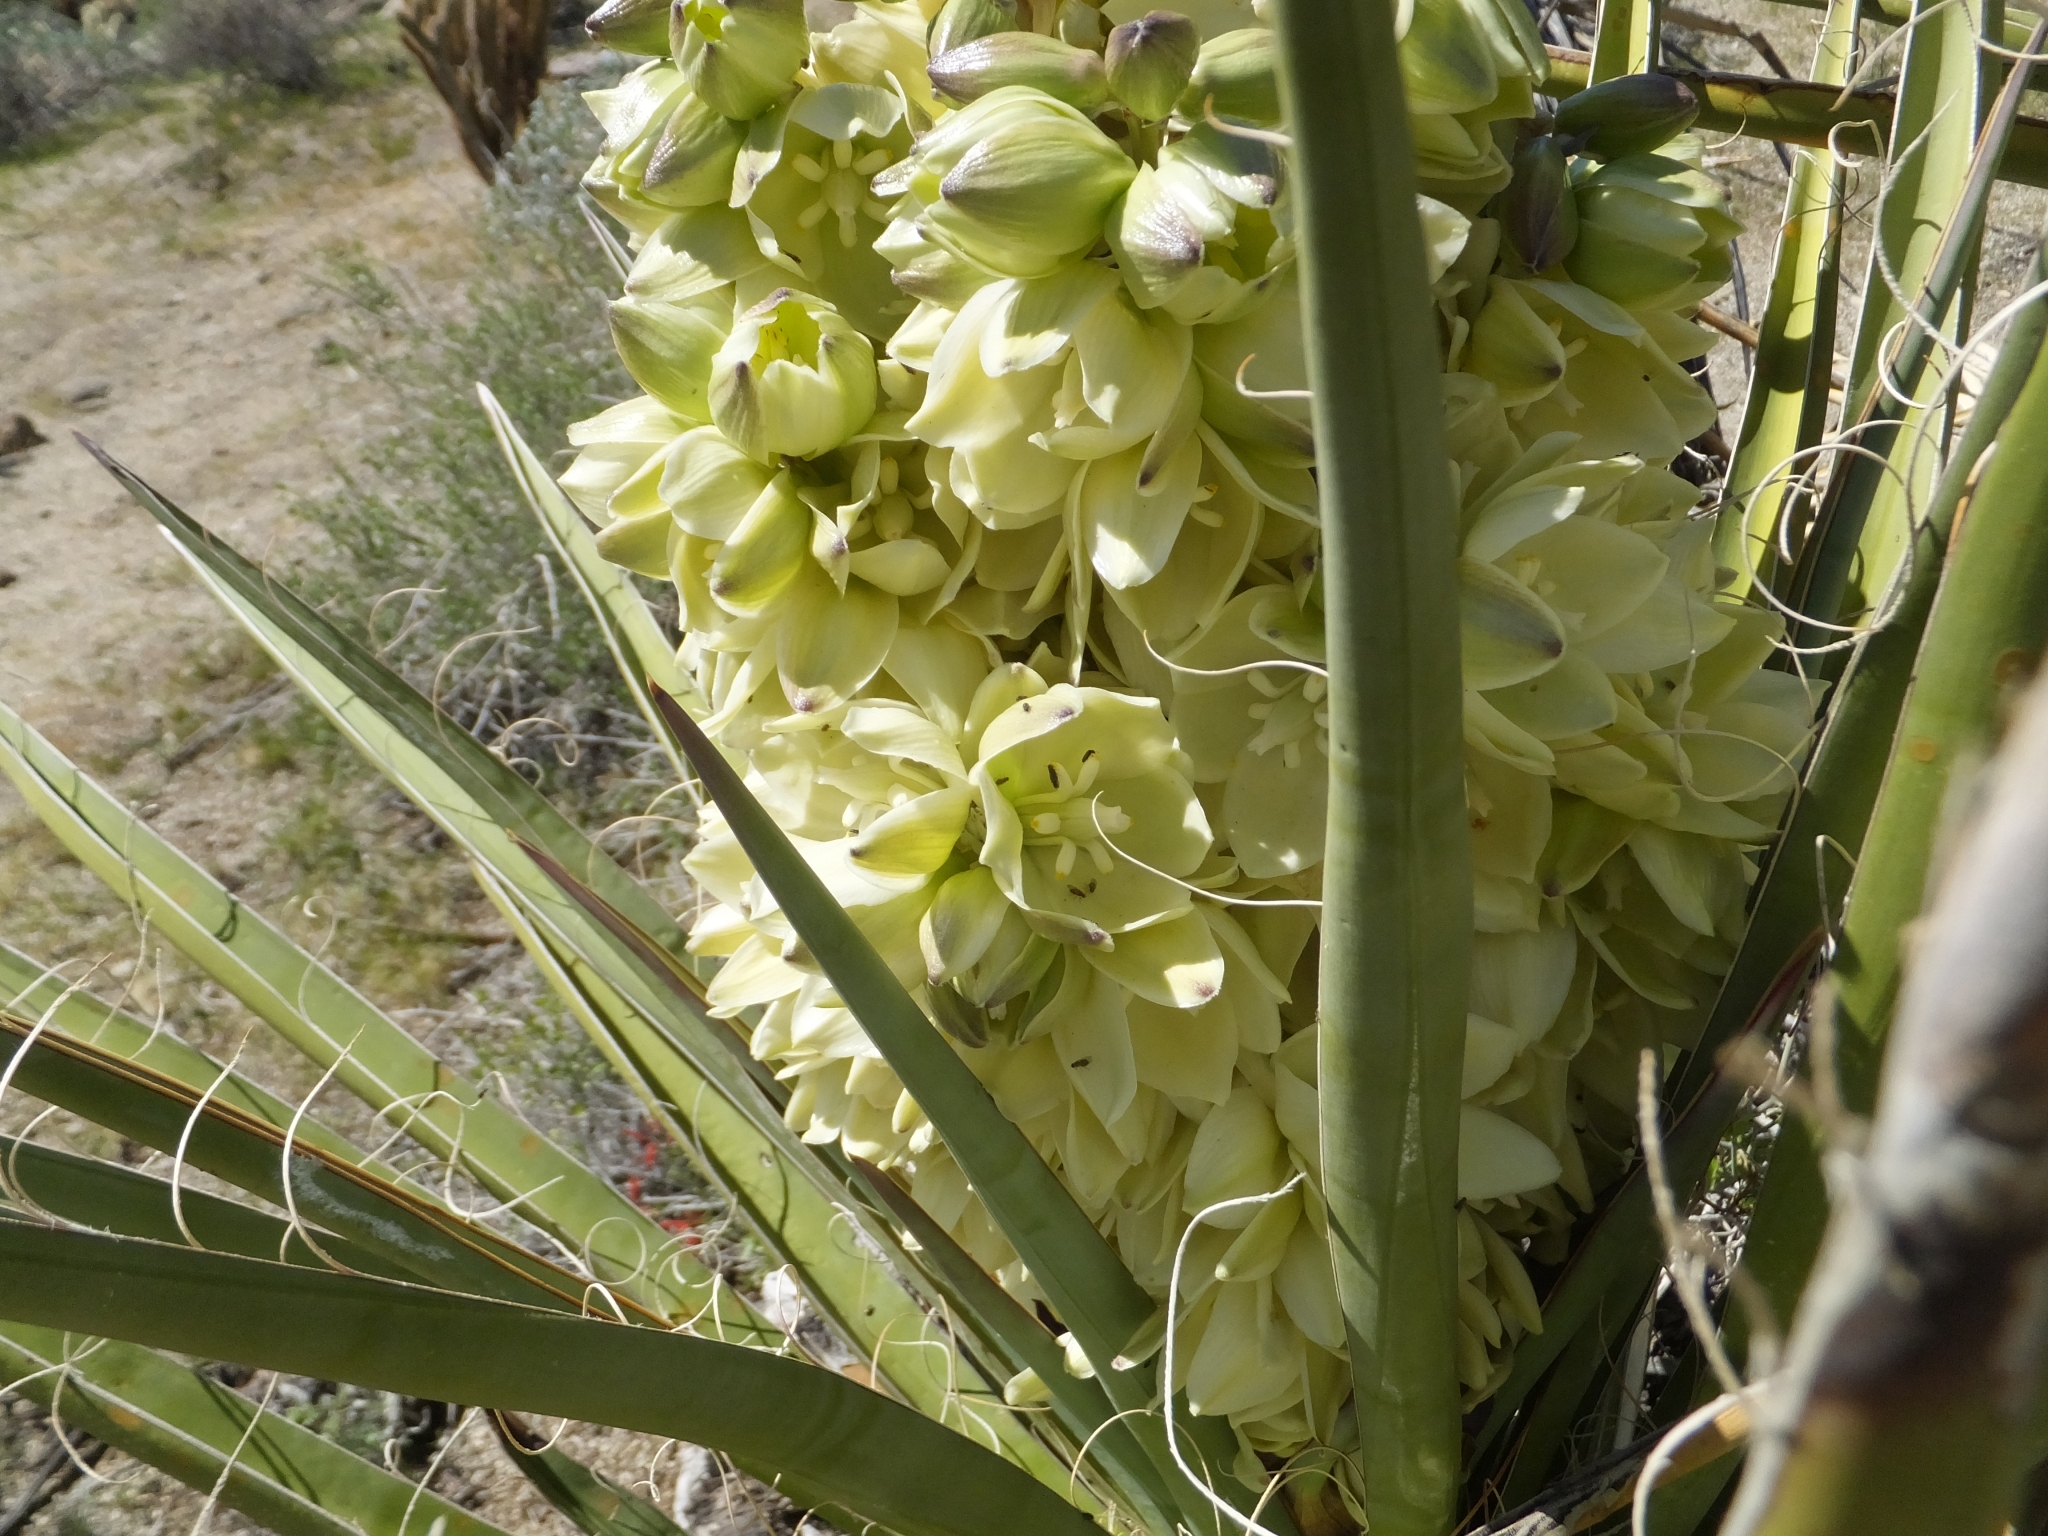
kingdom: Plantae
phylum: Tracheophyta
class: Liliopsida
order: Asparagales
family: Asparagaceae
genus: Yucca
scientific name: Yucca schidigera
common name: Mojave yucca
